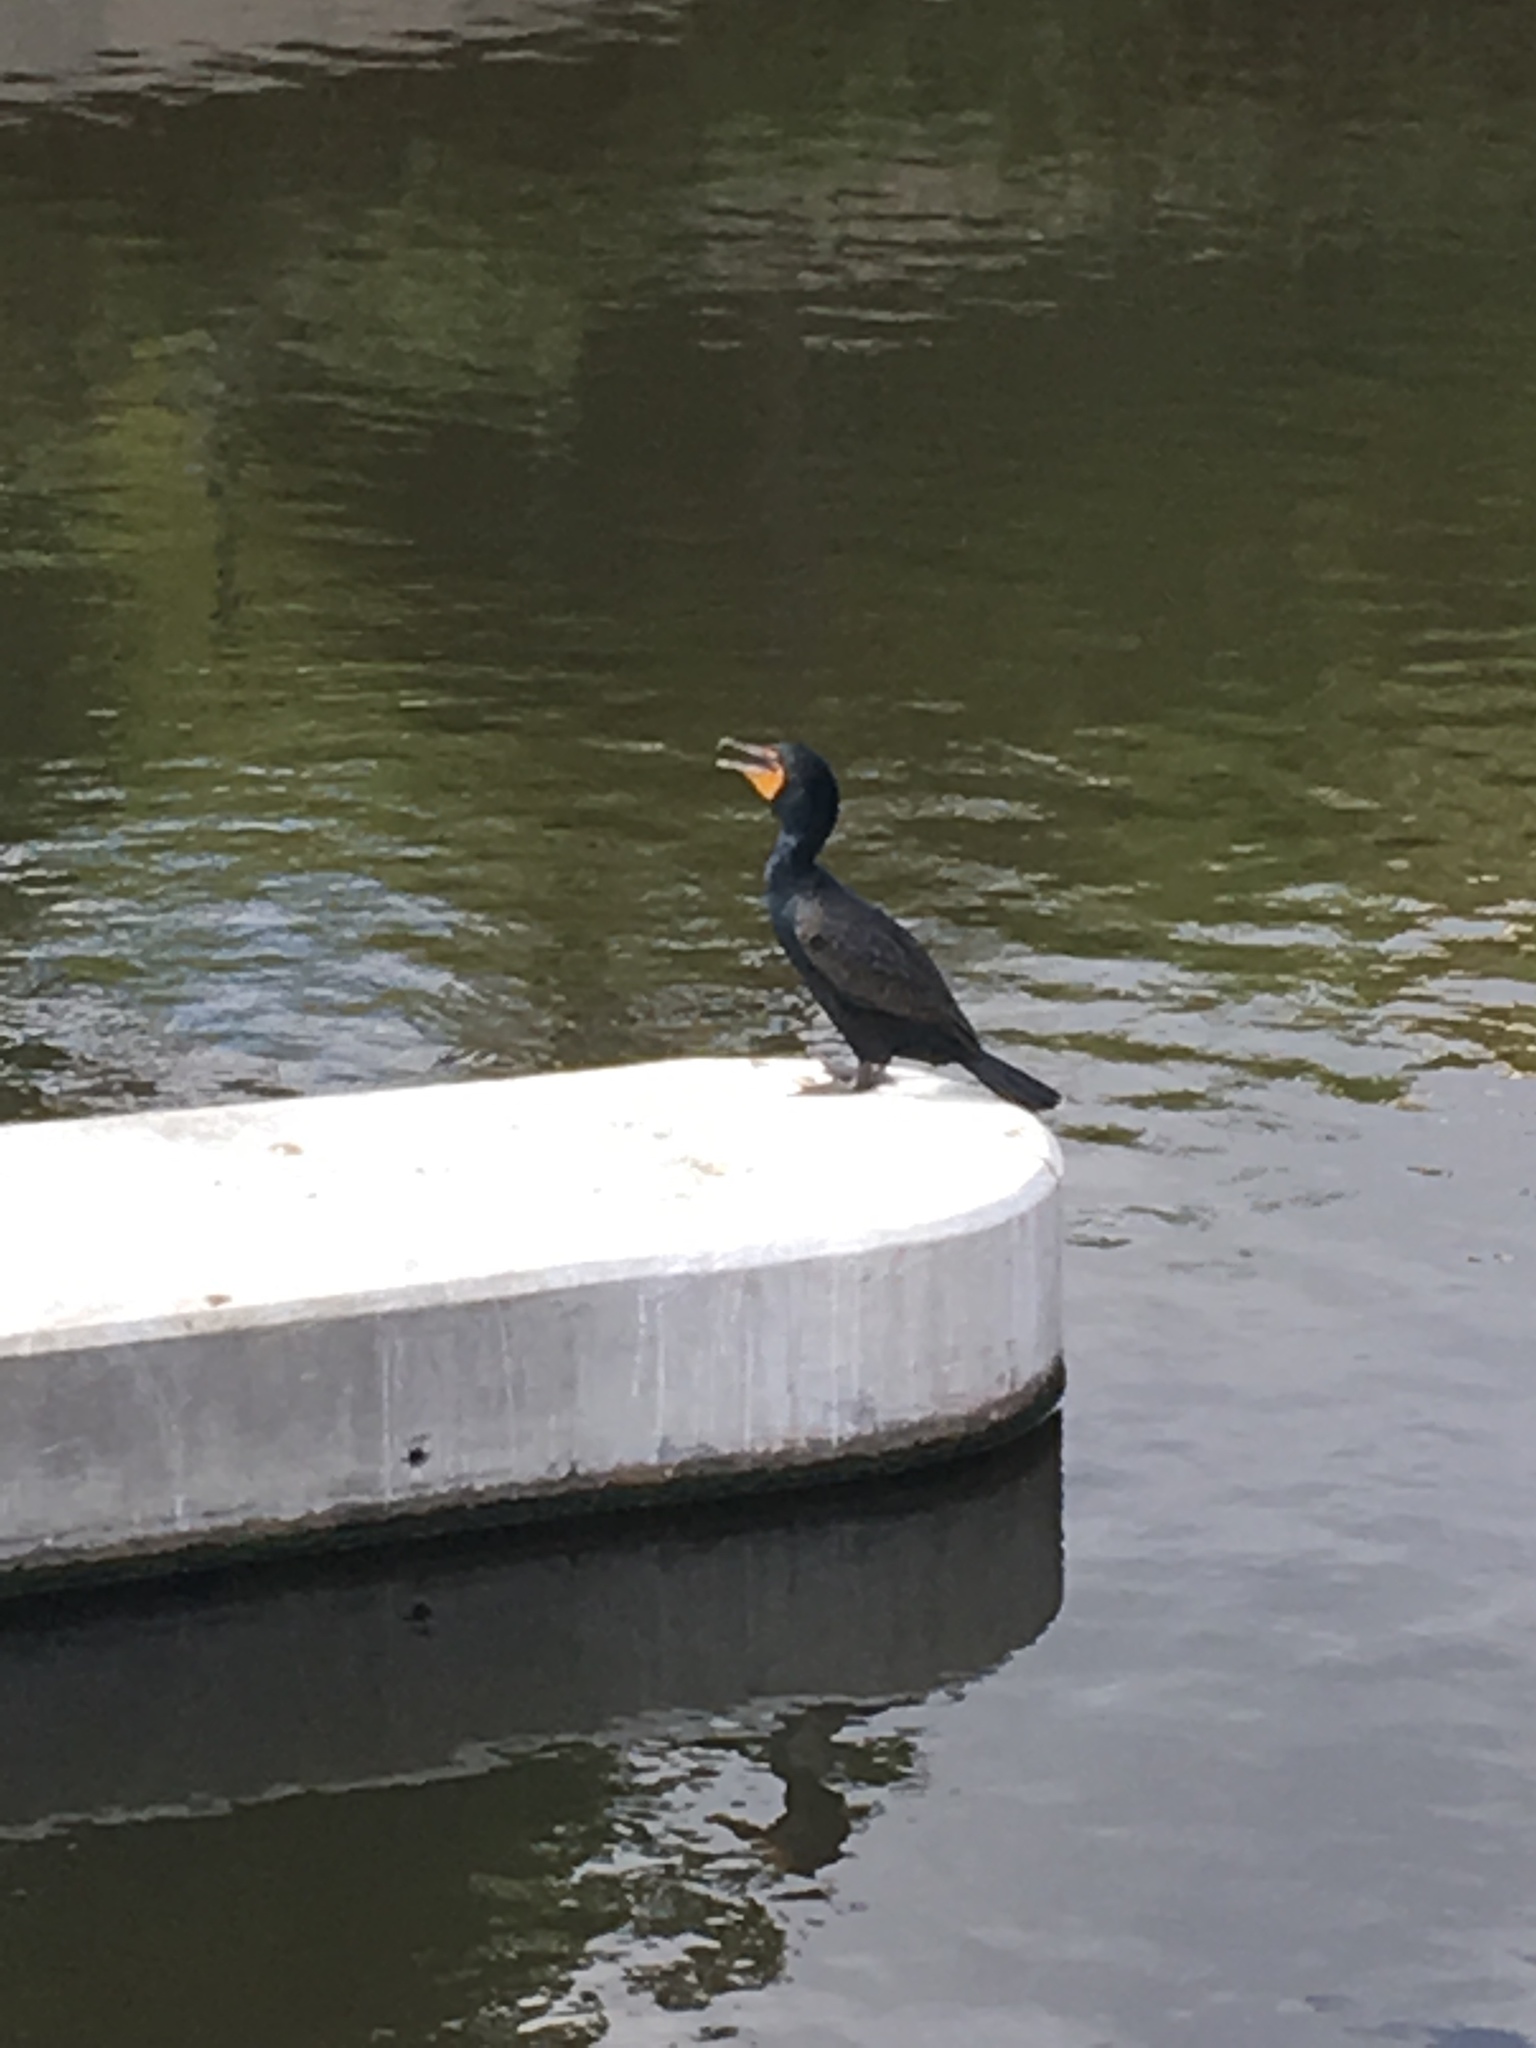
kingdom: Animalia
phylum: Chordata
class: Aves
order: Suliformes
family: Phalacrocoracidae
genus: Phalacrocorax
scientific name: Phalacrocorax auritus
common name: Double-crested cormorant
